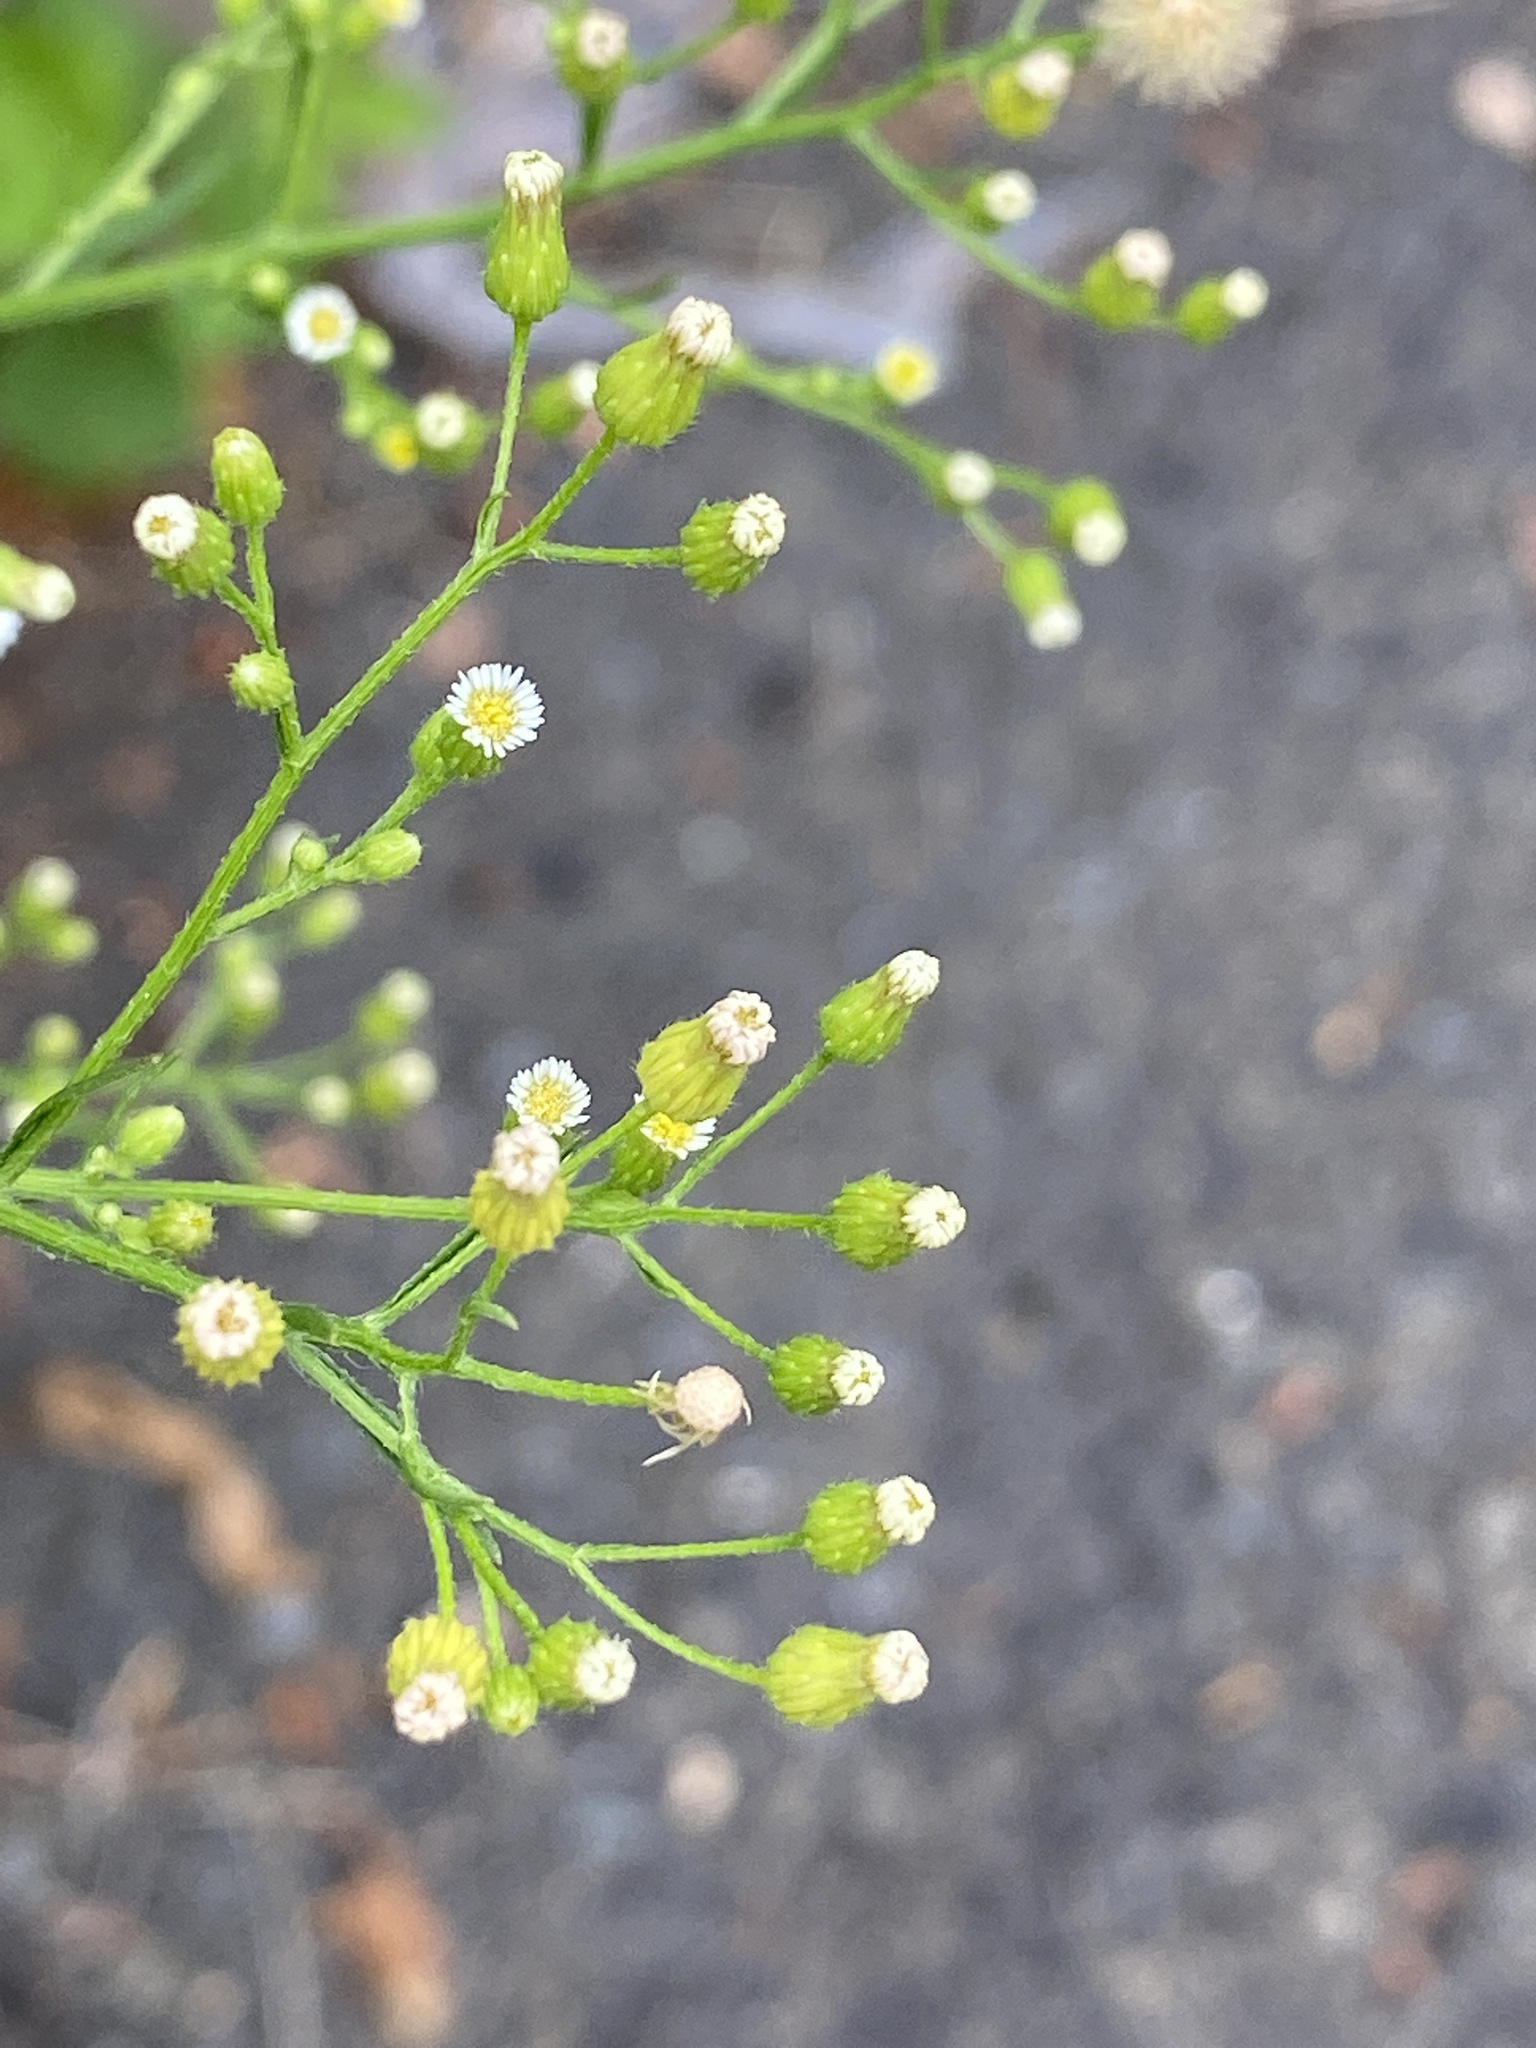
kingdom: Plantae
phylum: Tracheophyta
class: Magnoliopsida
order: Asterales
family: Asteraceae
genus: Erigeron
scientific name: Erigeron canadensis
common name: Canadian fleabane
